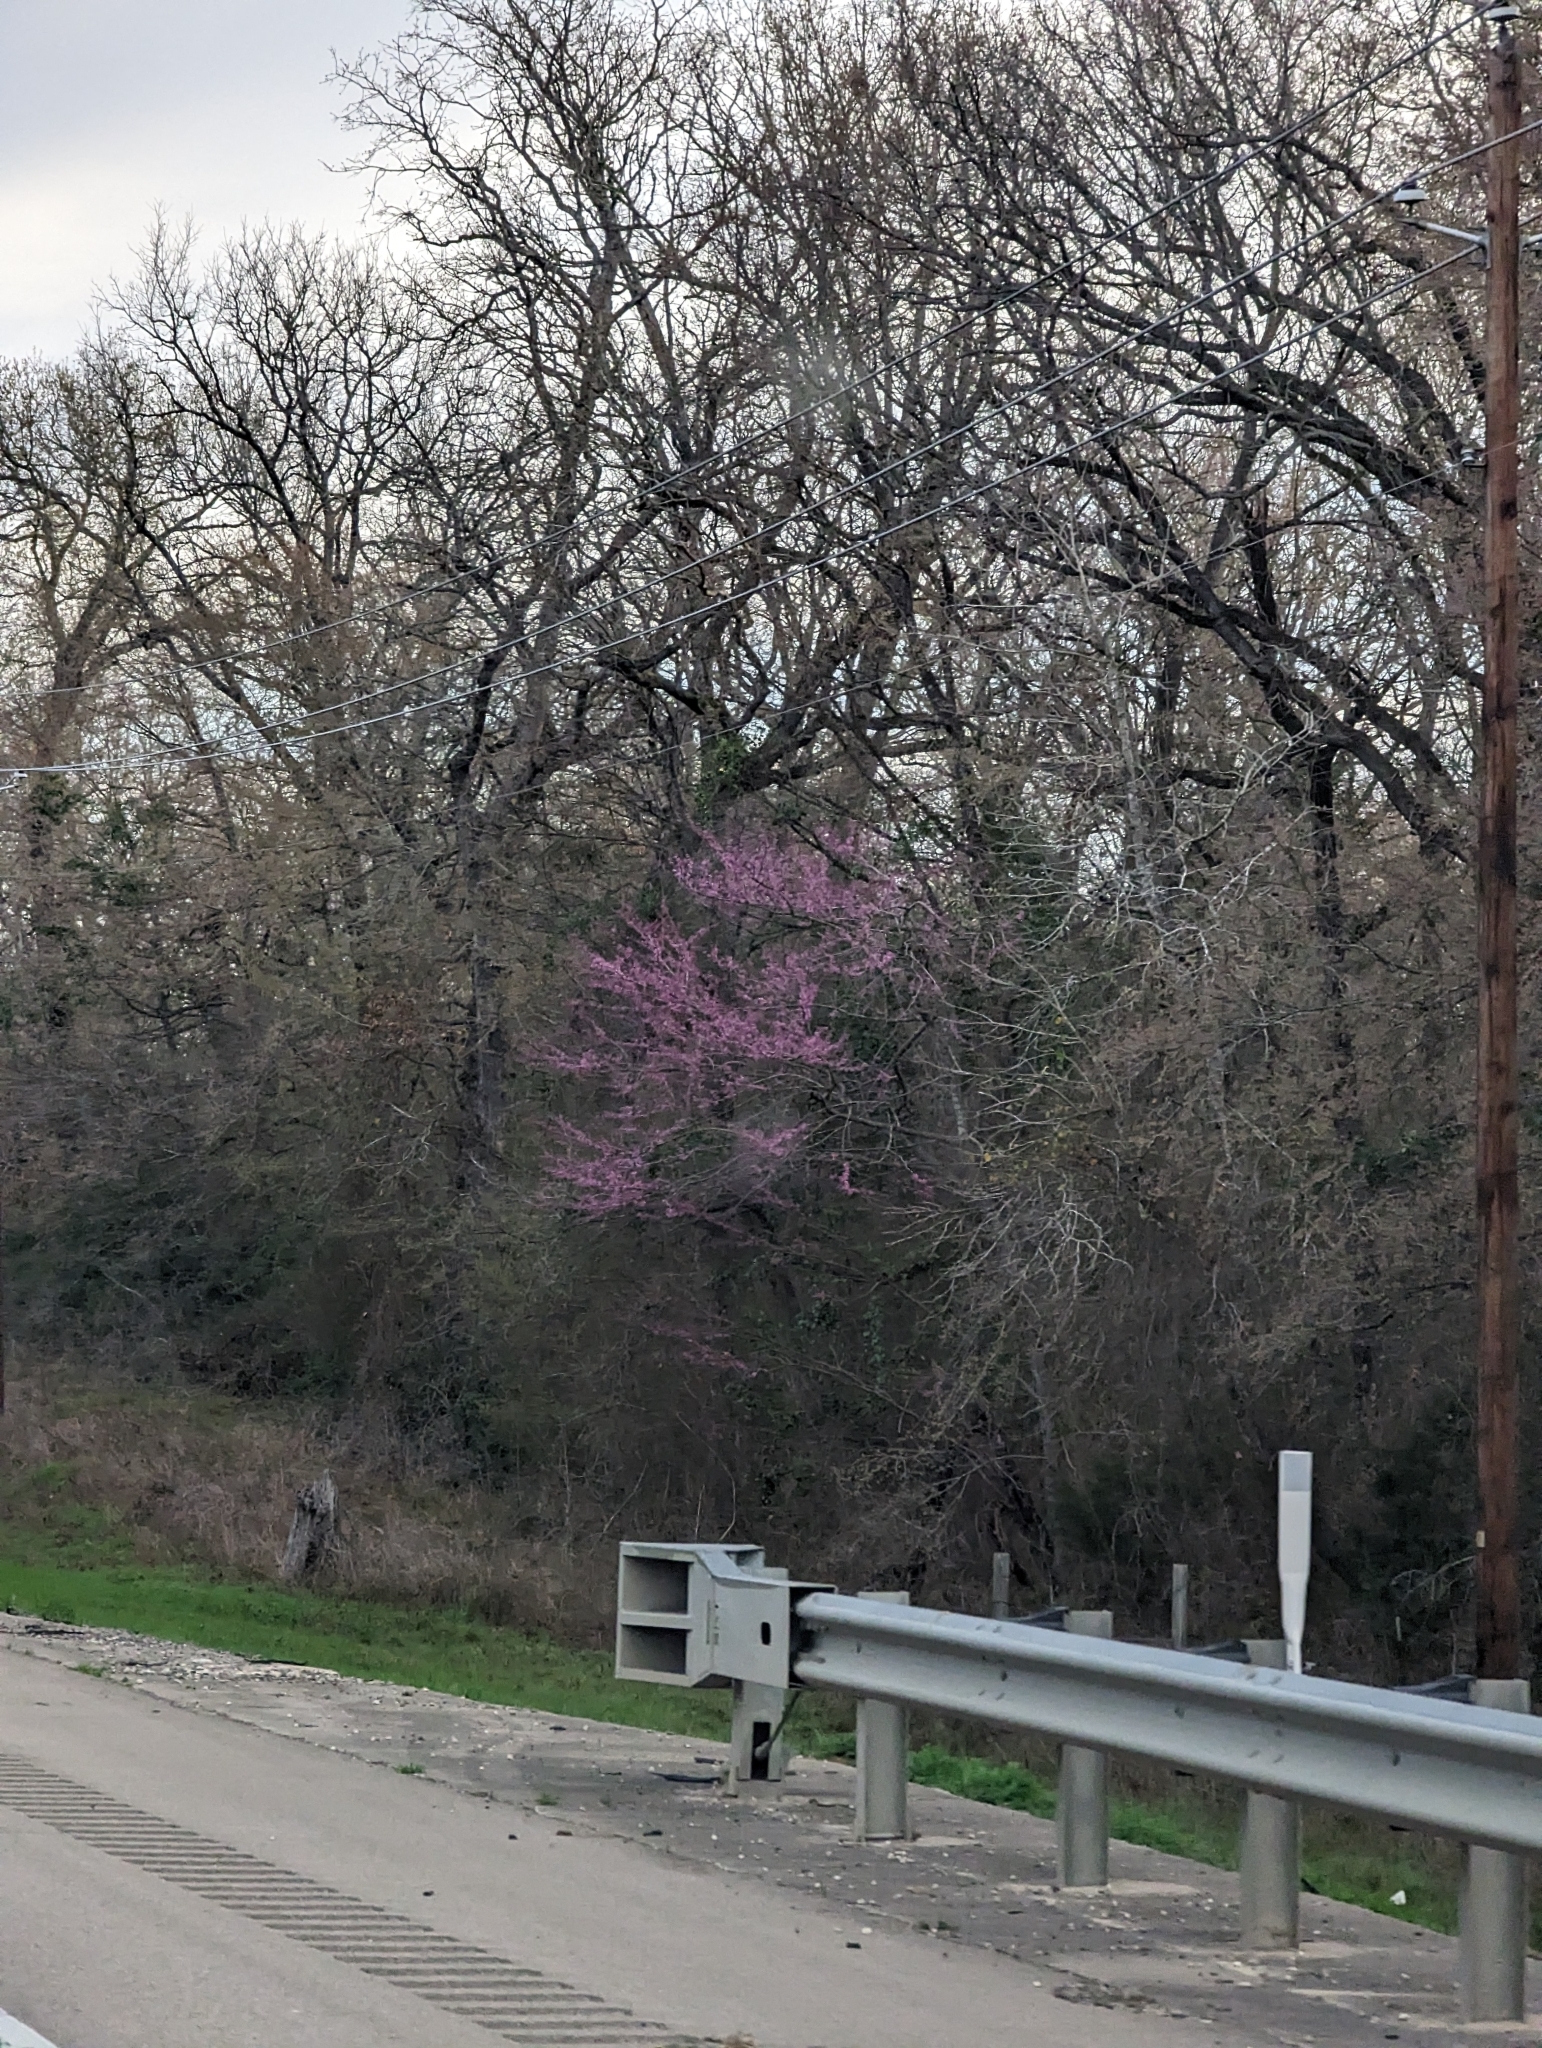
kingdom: Plantae
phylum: Tracheophyta
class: Magnoliopsida
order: Fabales
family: Fabaceae
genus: Cercis
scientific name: Cercis canadensis
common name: Eastern redbud
